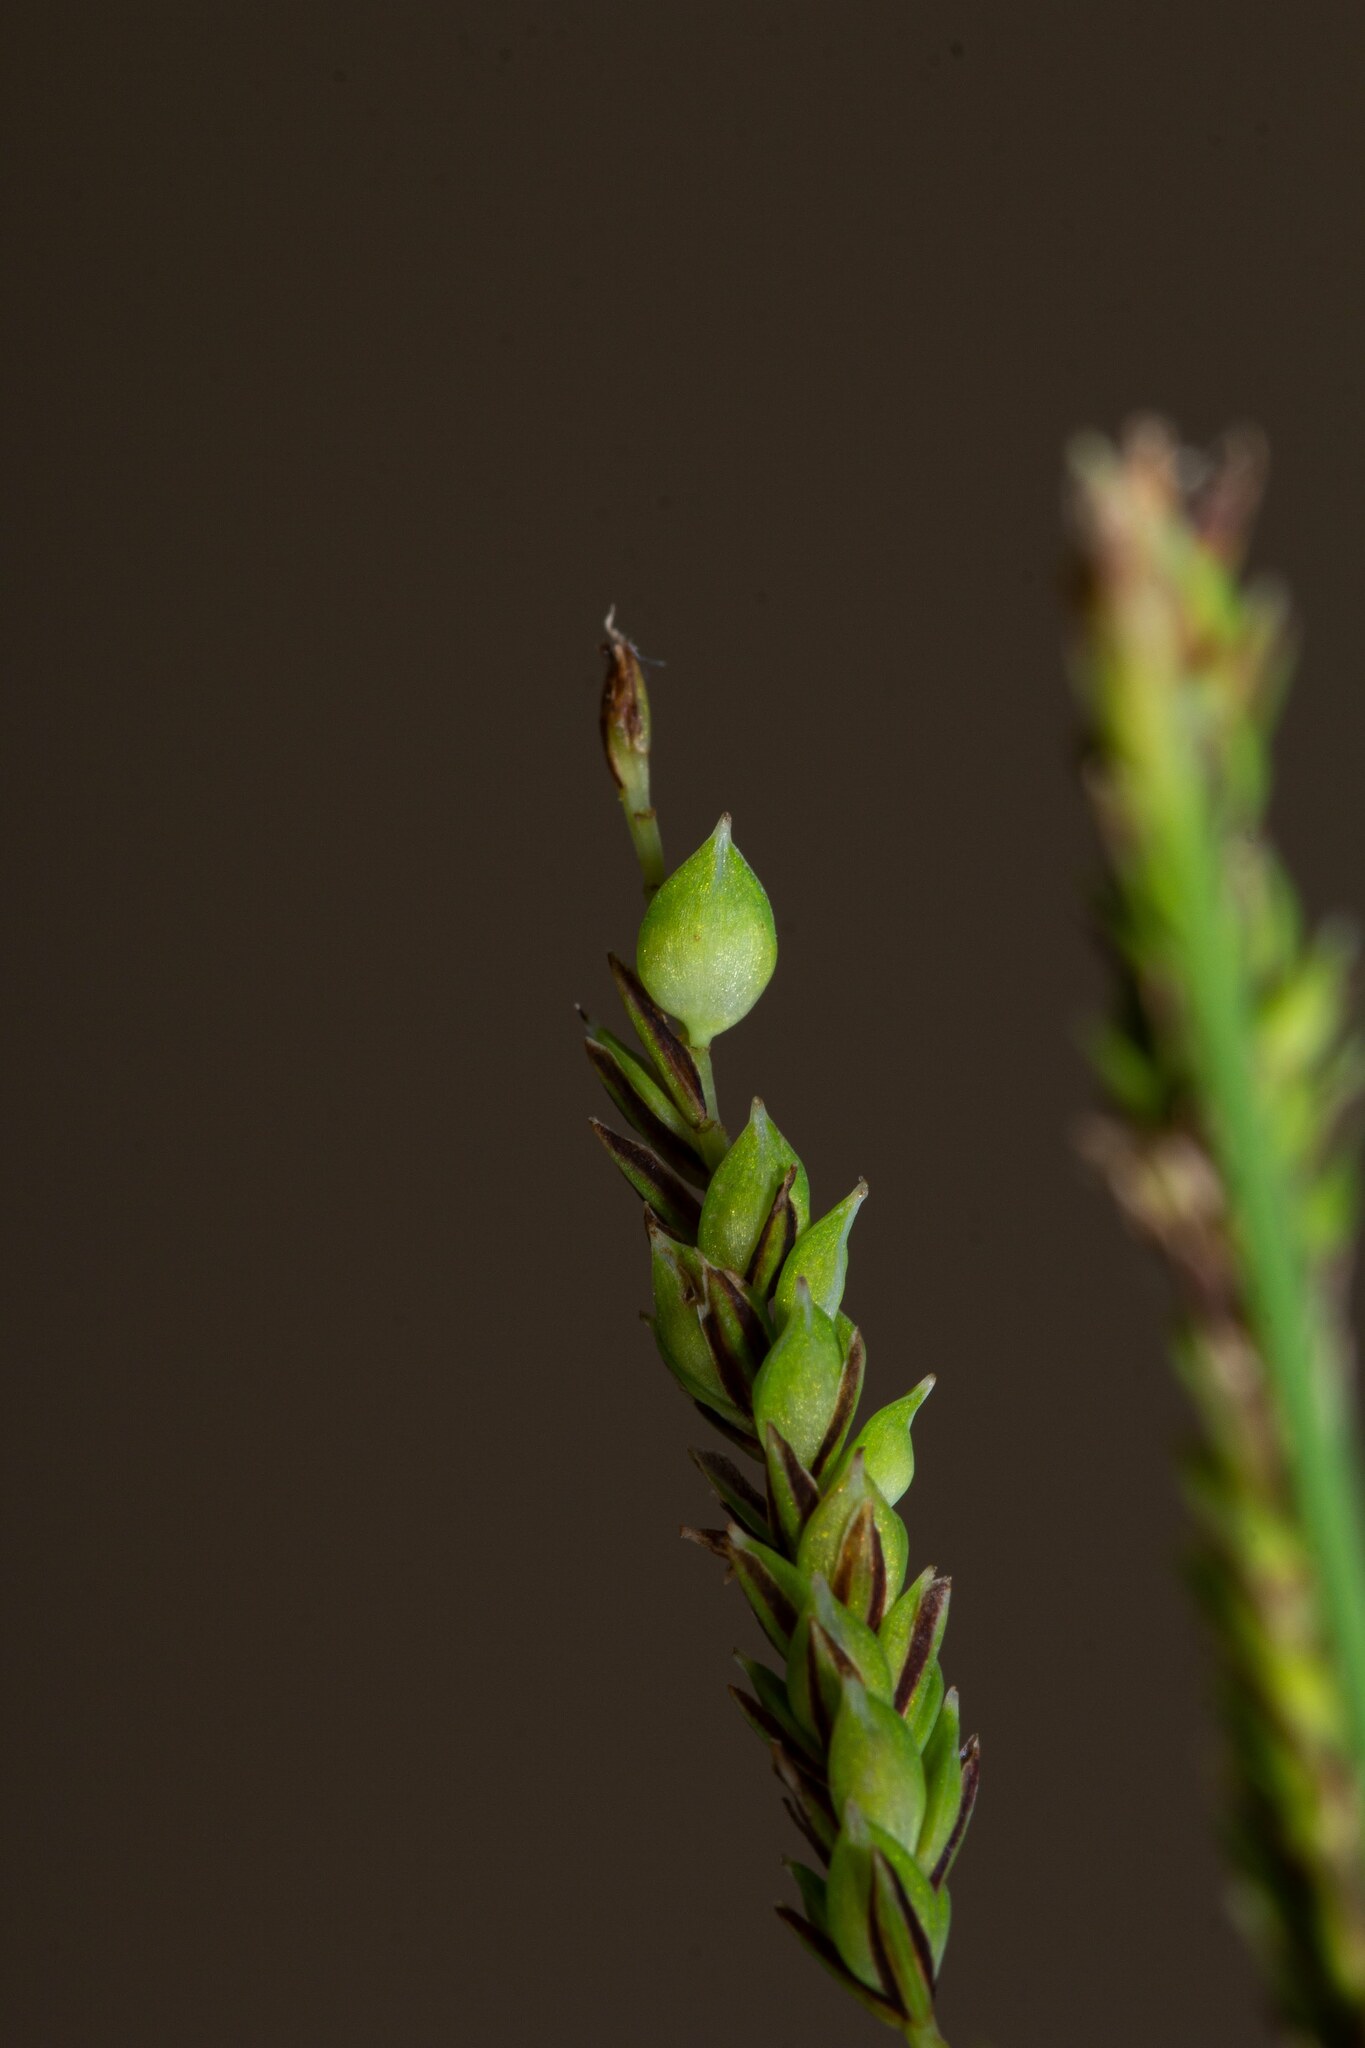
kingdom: Plantae
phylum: Tracheophyta
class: Liliopsida
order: Poales
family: Cyperaceae
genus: Carex
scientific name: Carex torta
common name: Twisted sedge
